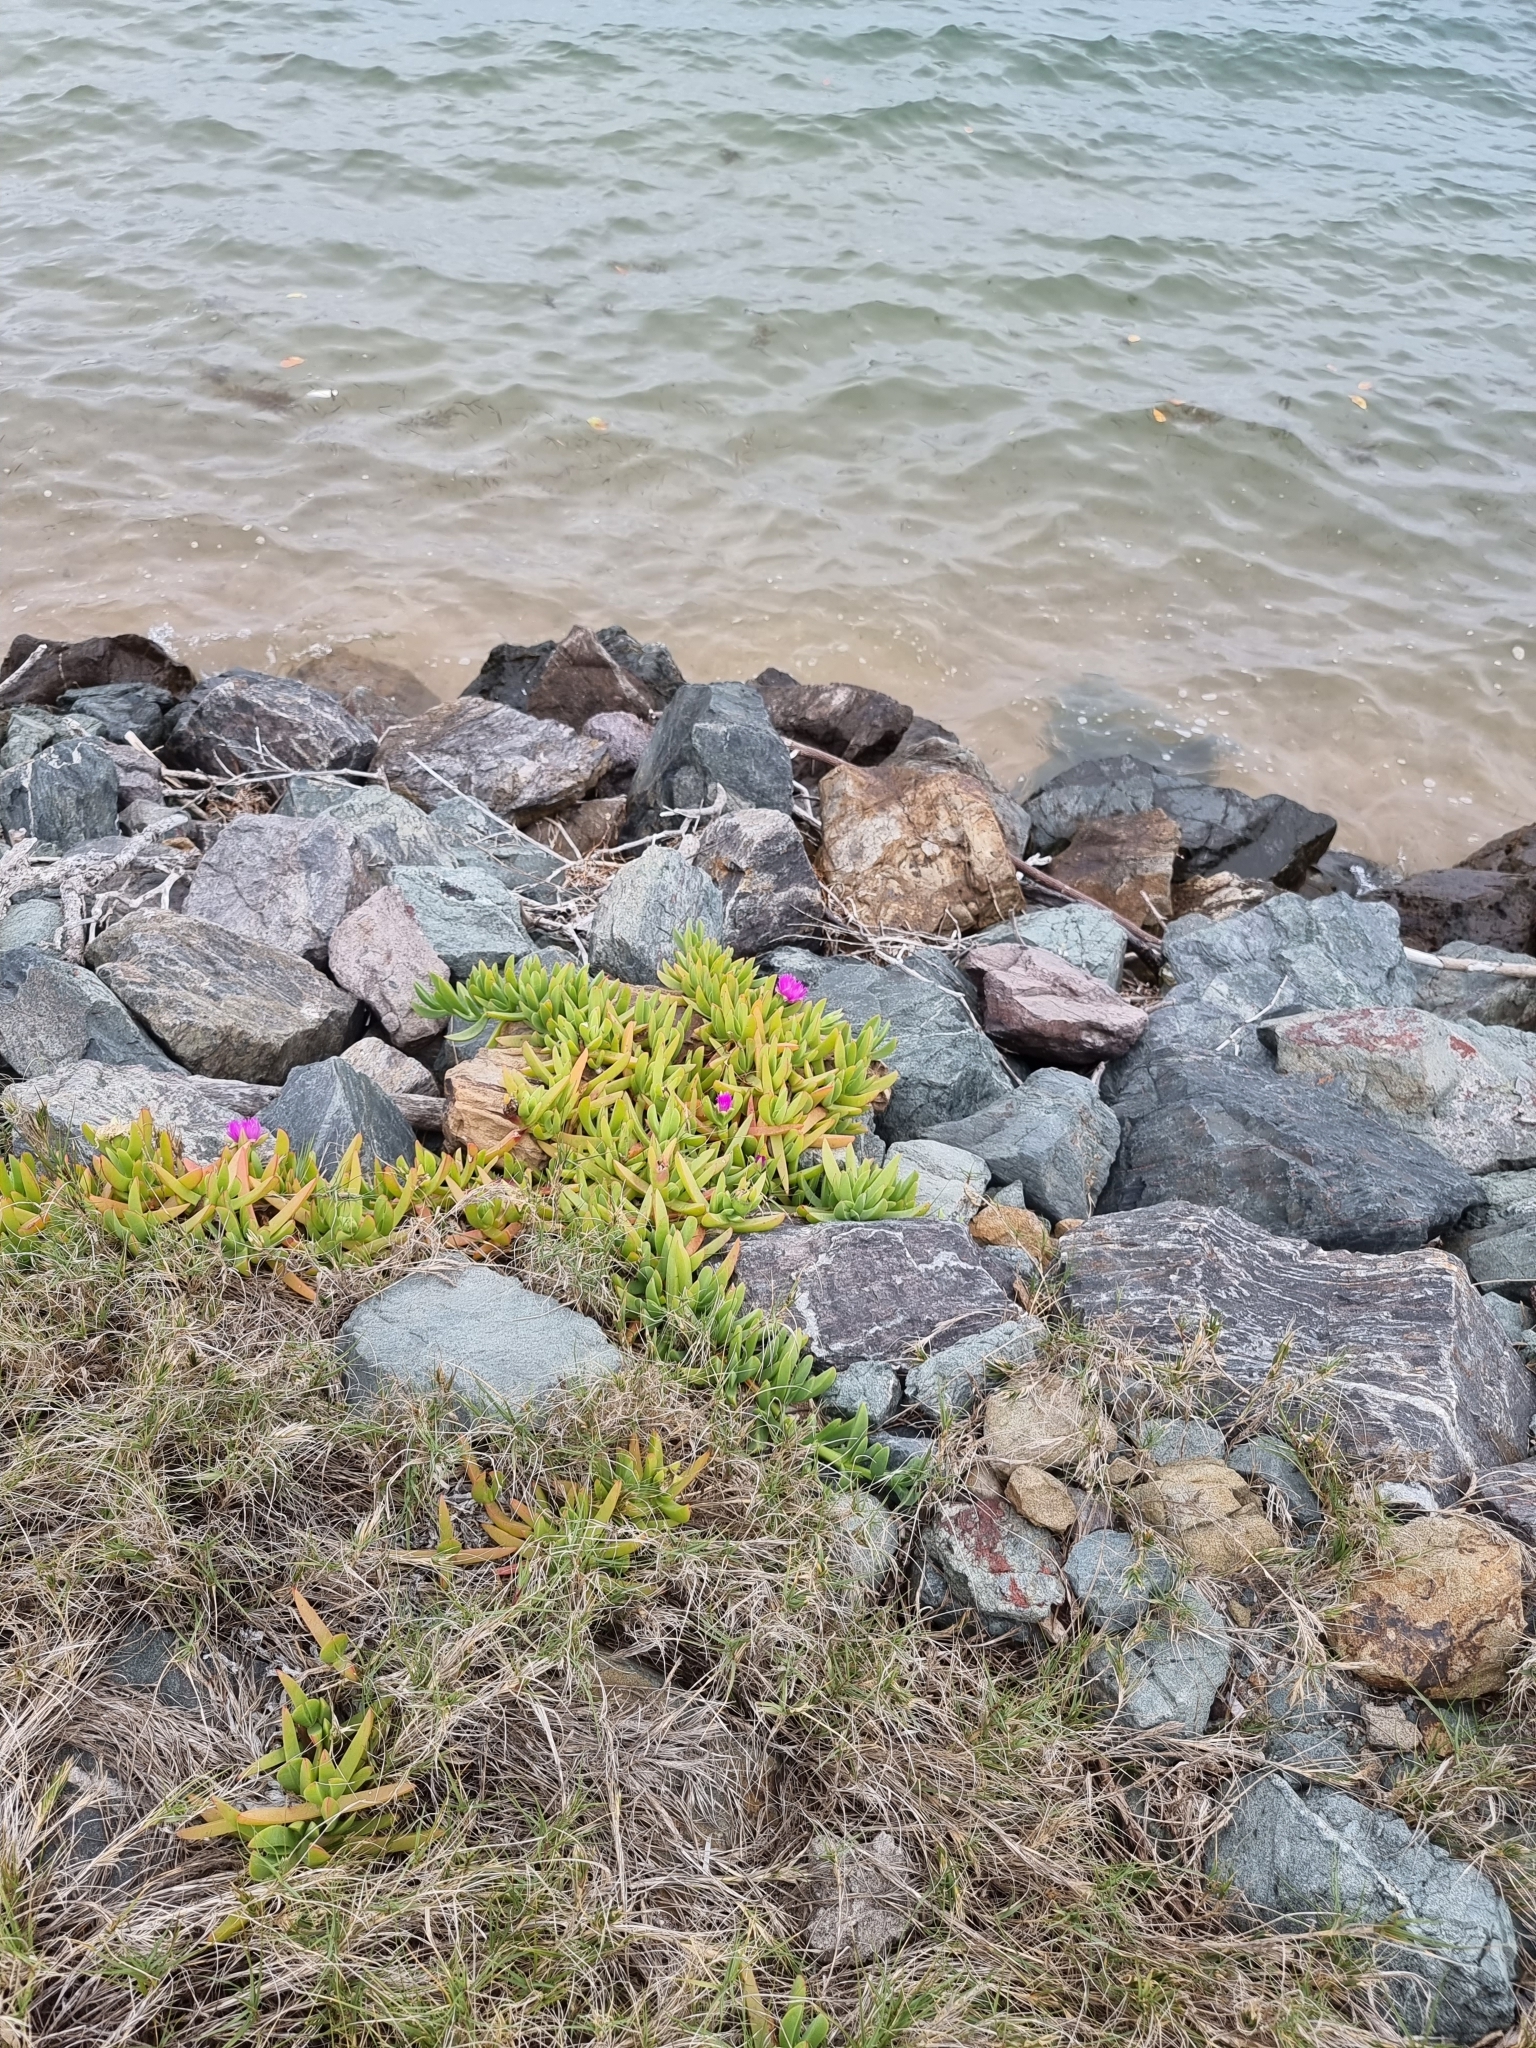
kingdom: Plantae
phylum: Tracheophyta
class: Magnoliopsida
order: Caryophyllales
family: Aizoaceae
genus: Carpobrotus
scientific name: Carpobrotus rossii
